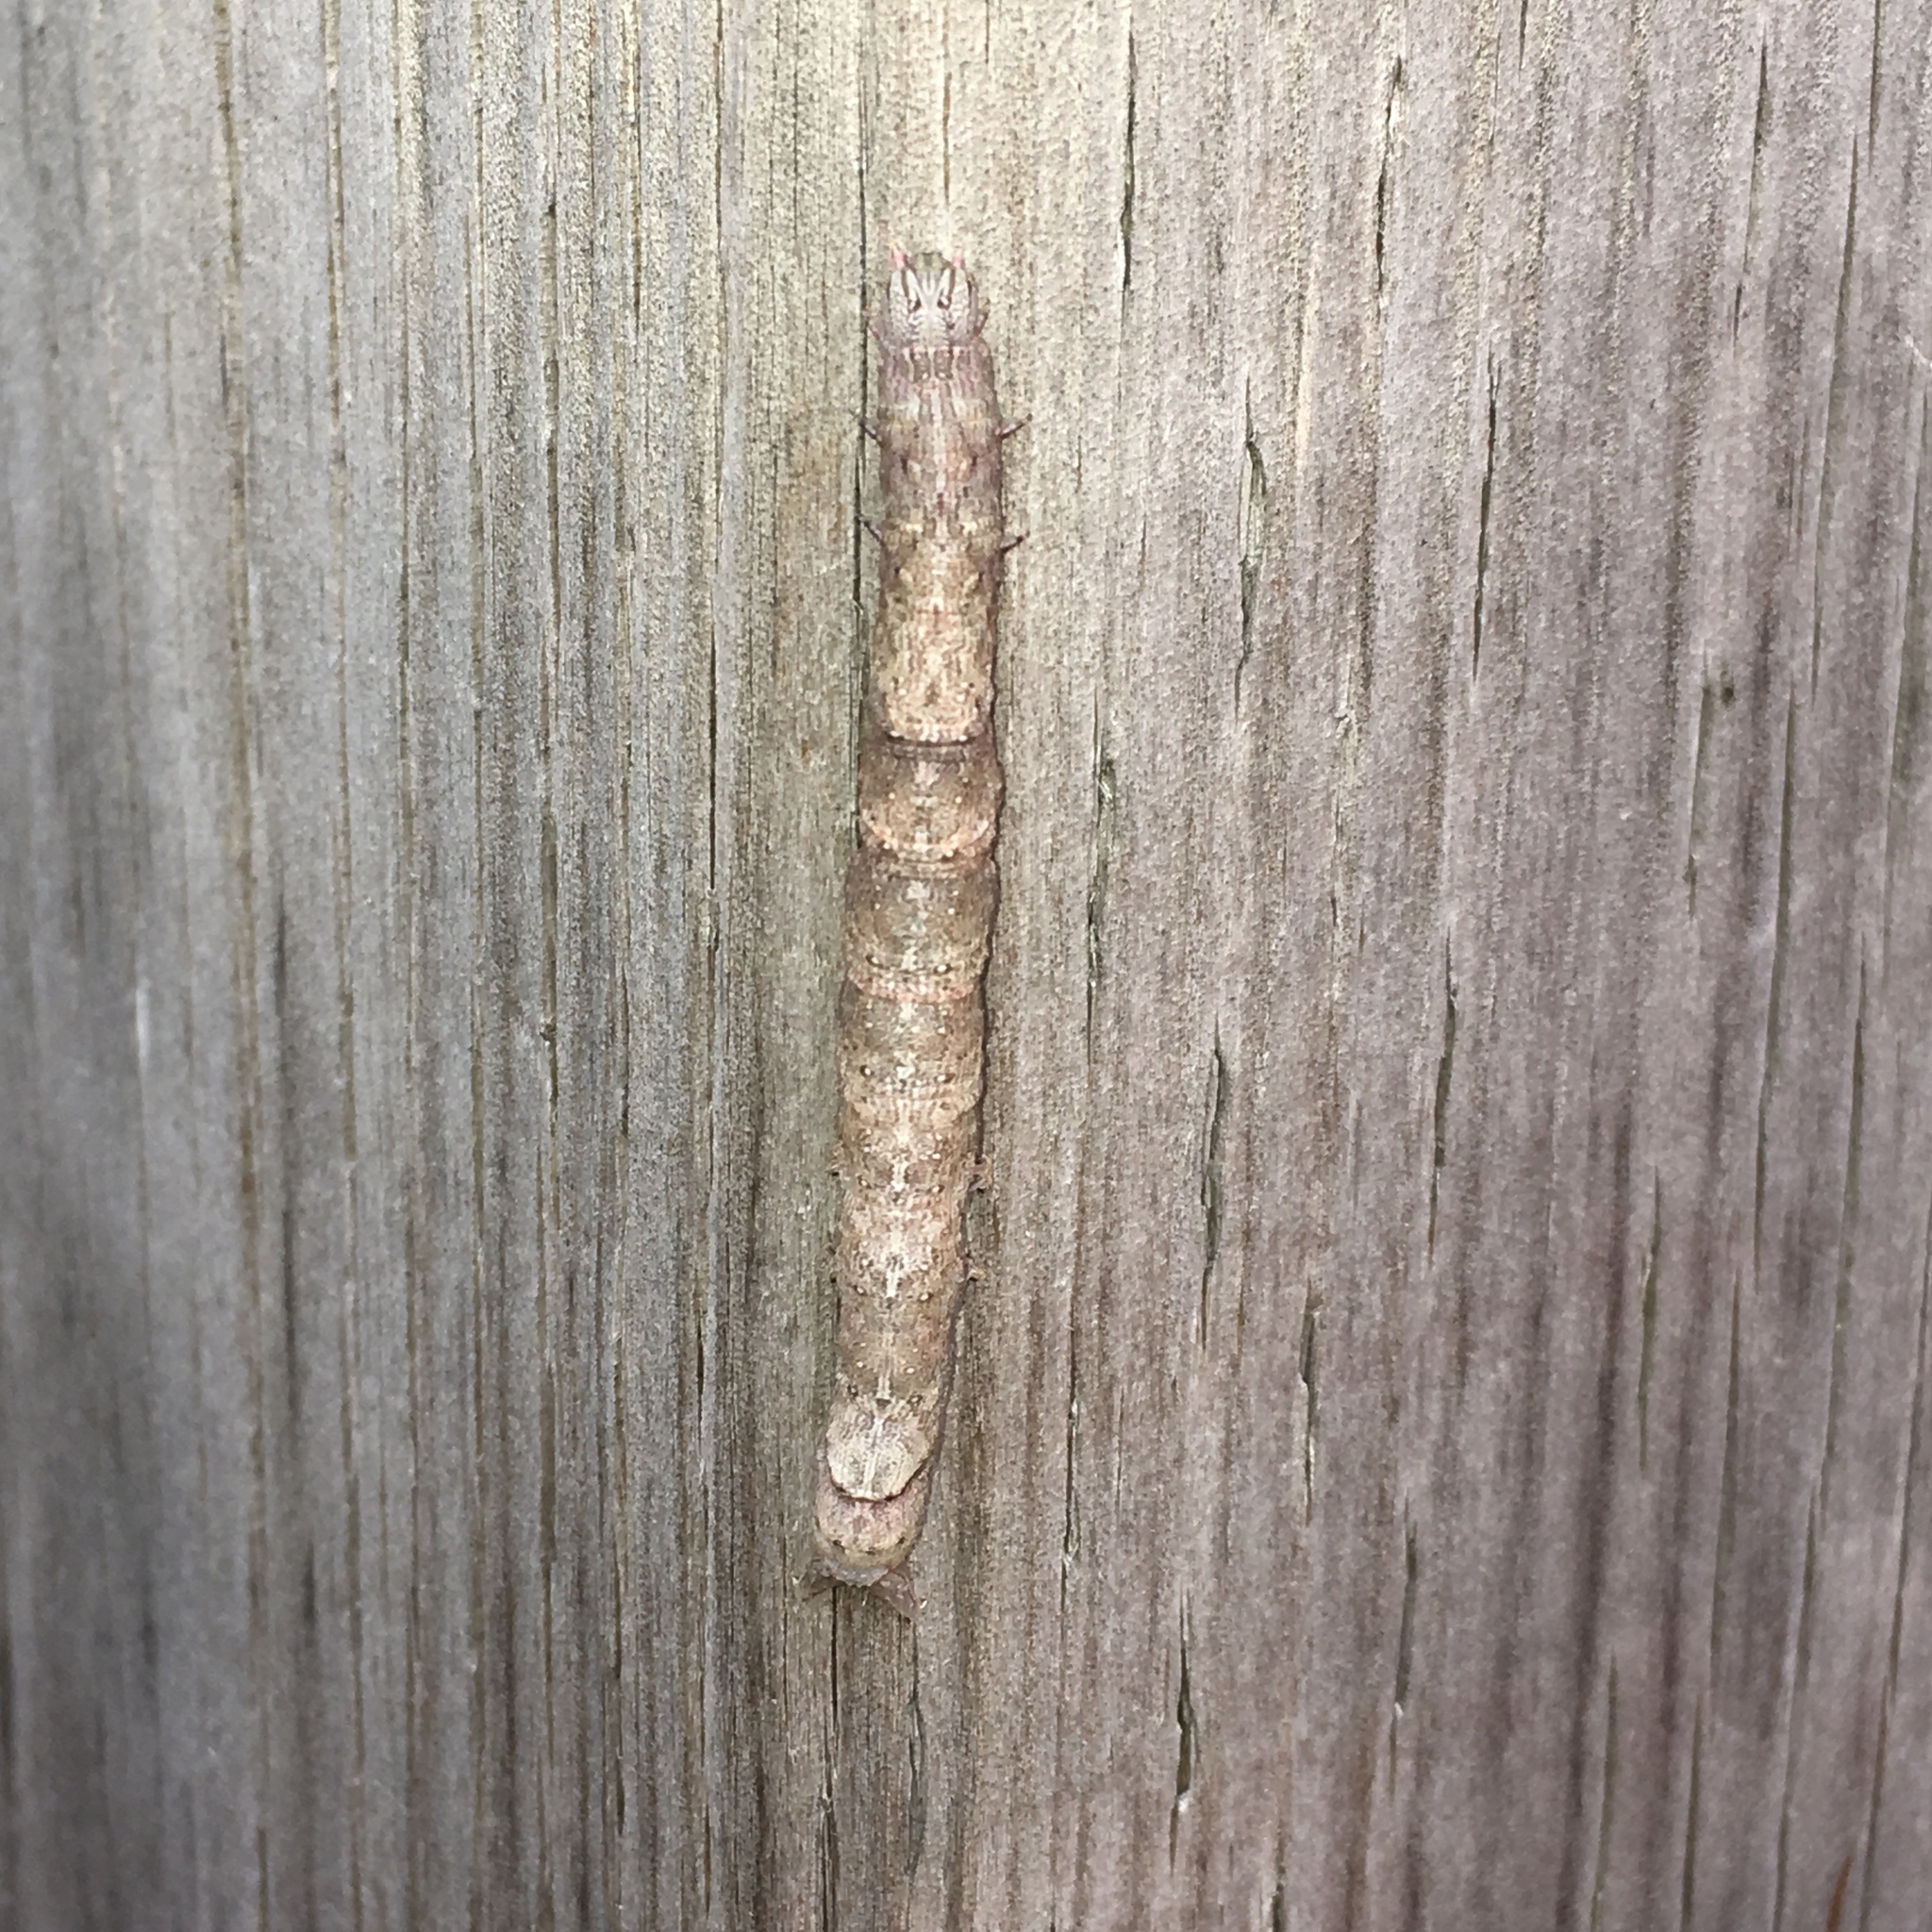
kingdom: Animalia
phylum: Arthropoda
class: Insecta
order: Lepidoptera
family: Erebidae
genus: Parallelia
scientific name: Parallelia bistriaris
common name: Maple looper moth
